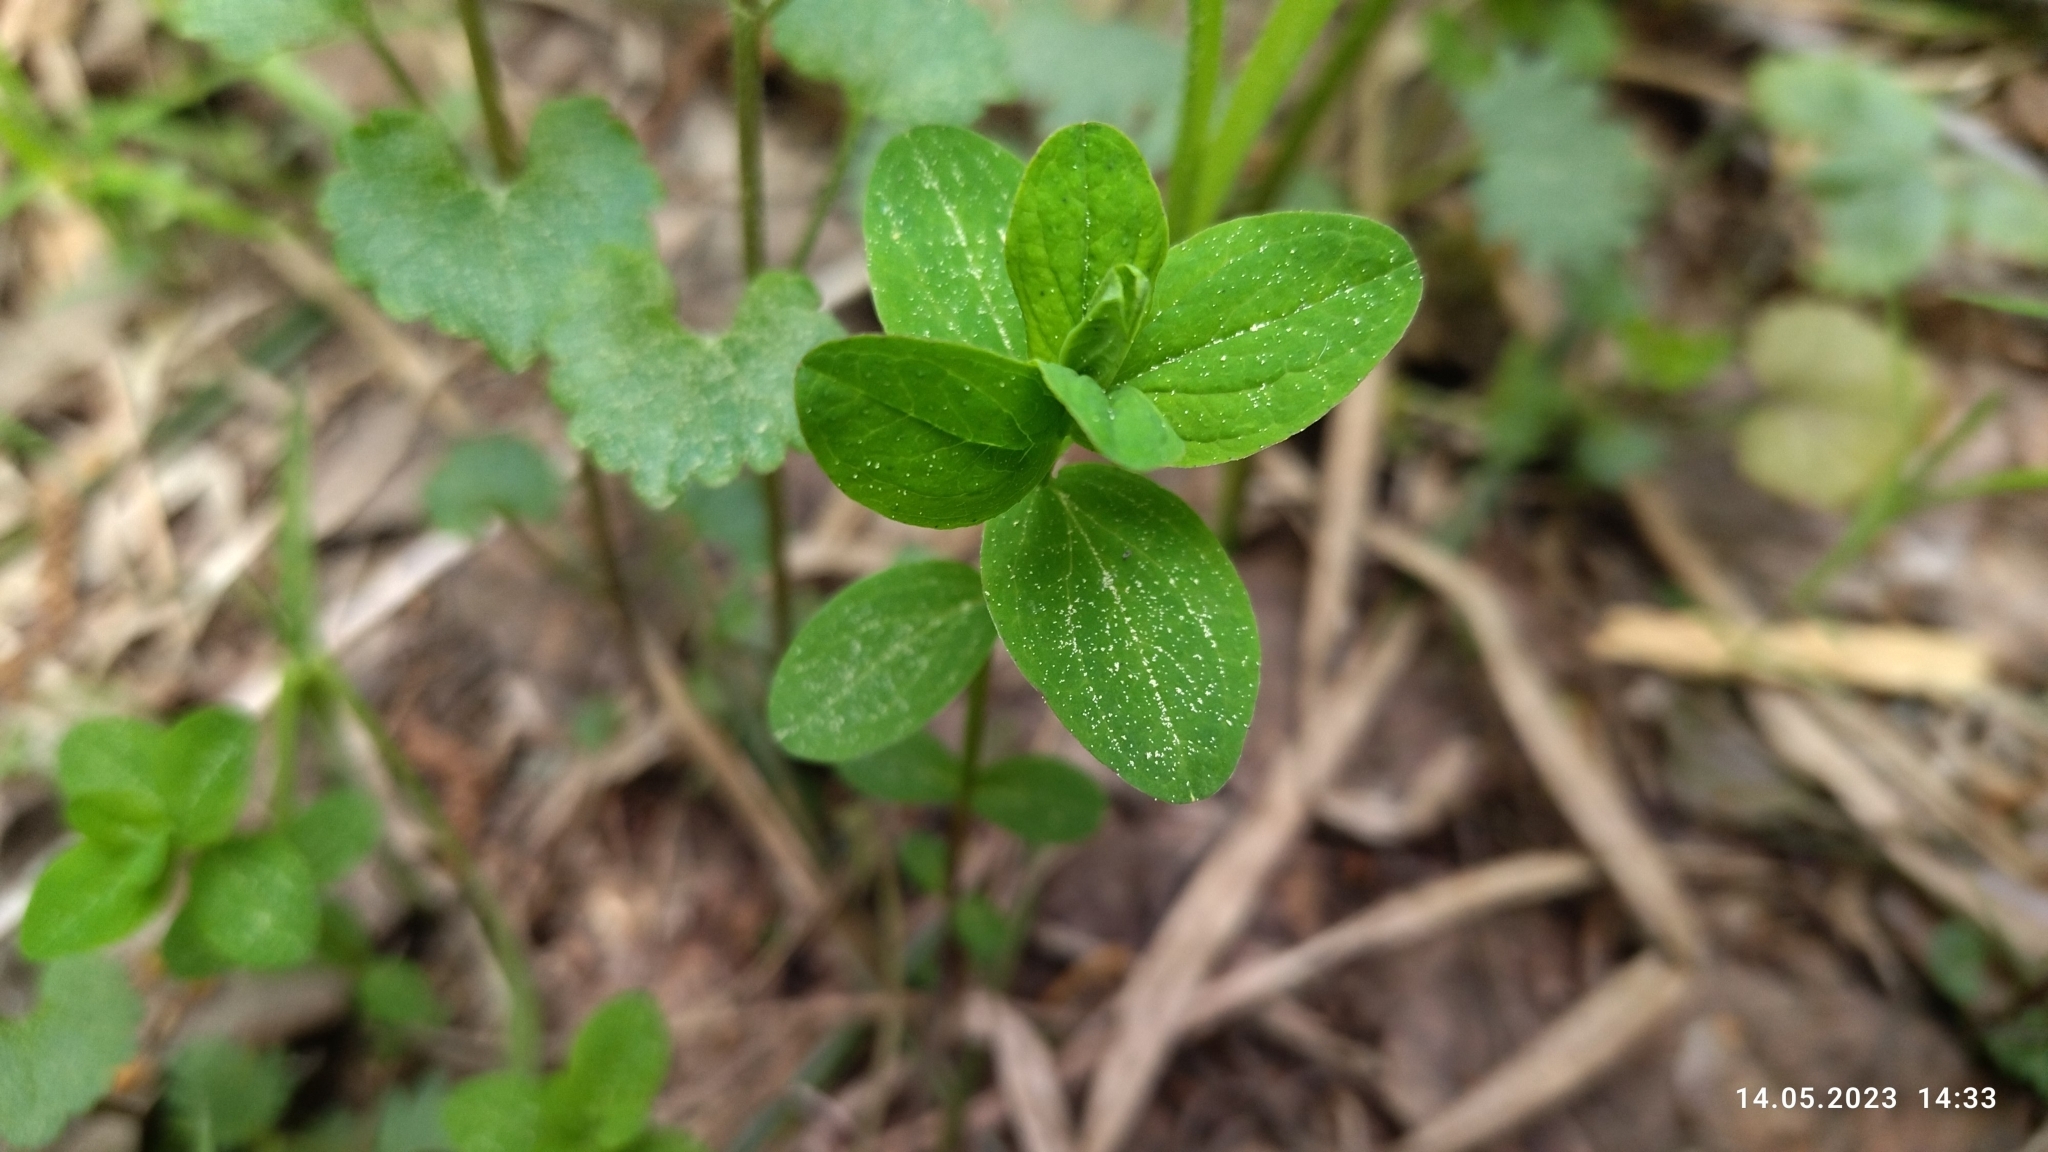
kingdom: Plantae
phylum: Tracheophyta
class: Magnoliopsida
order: Malpighiales
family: Hypericaceae
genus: Hypericum
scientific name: Hypericum maculatum
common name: Imperforate st. john's-wort
